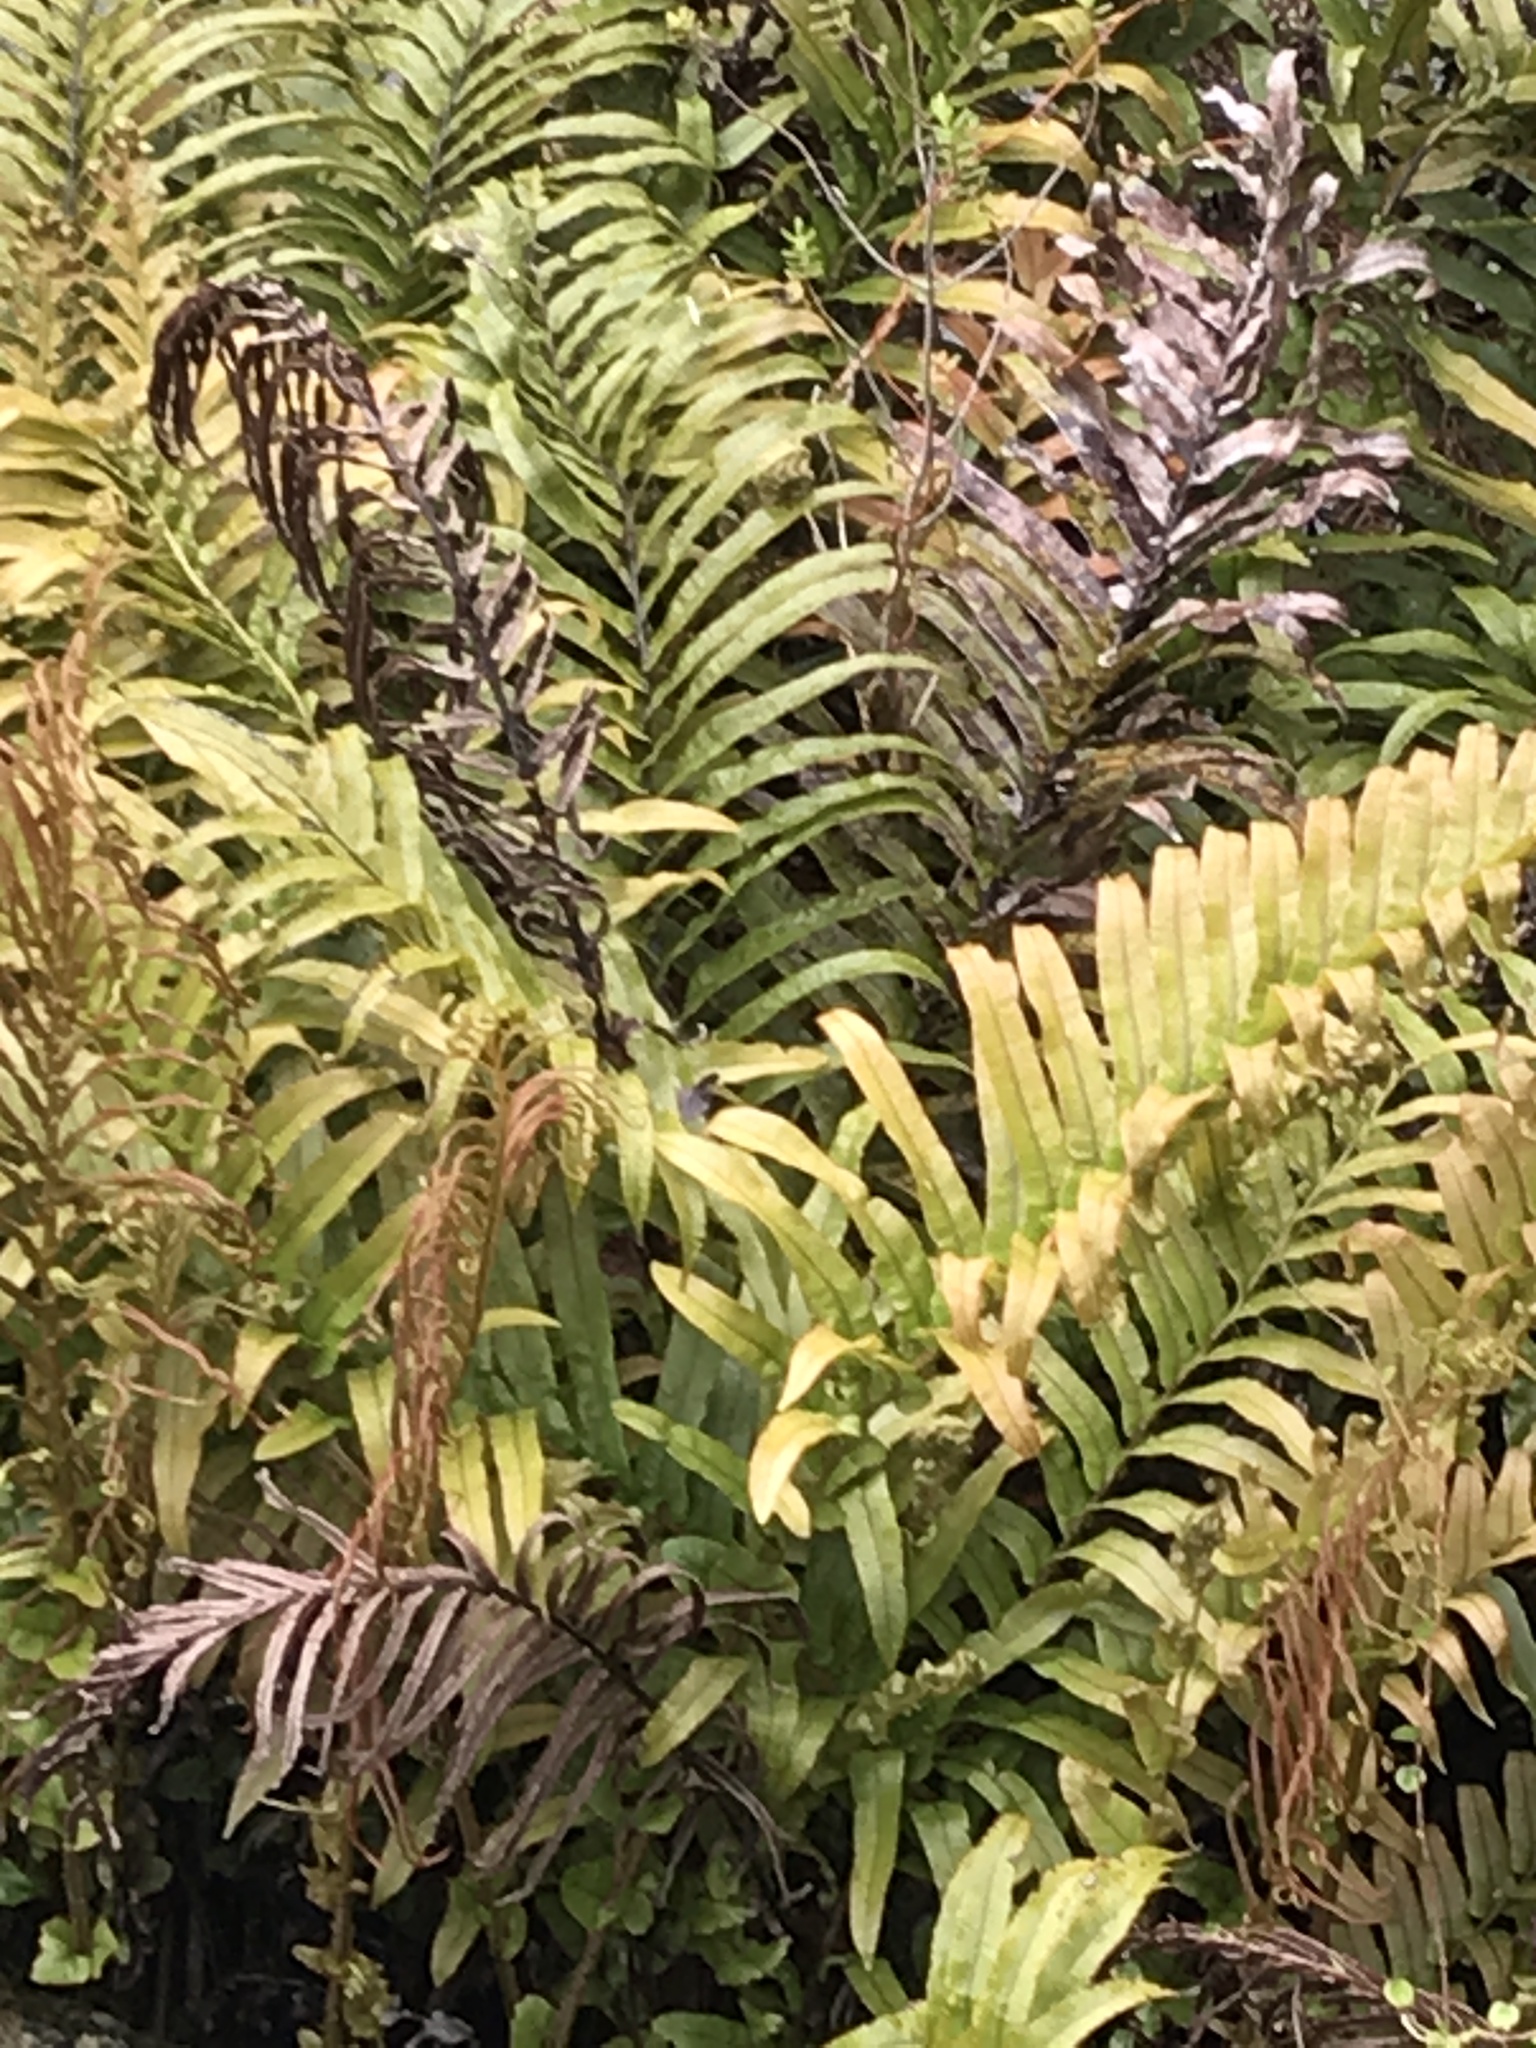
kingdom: Plantae
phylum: Tracheophyta
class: Polypodiopsida
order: Polypodiales
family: Blechnaceae
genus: Blechnum
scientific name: Blechnum
